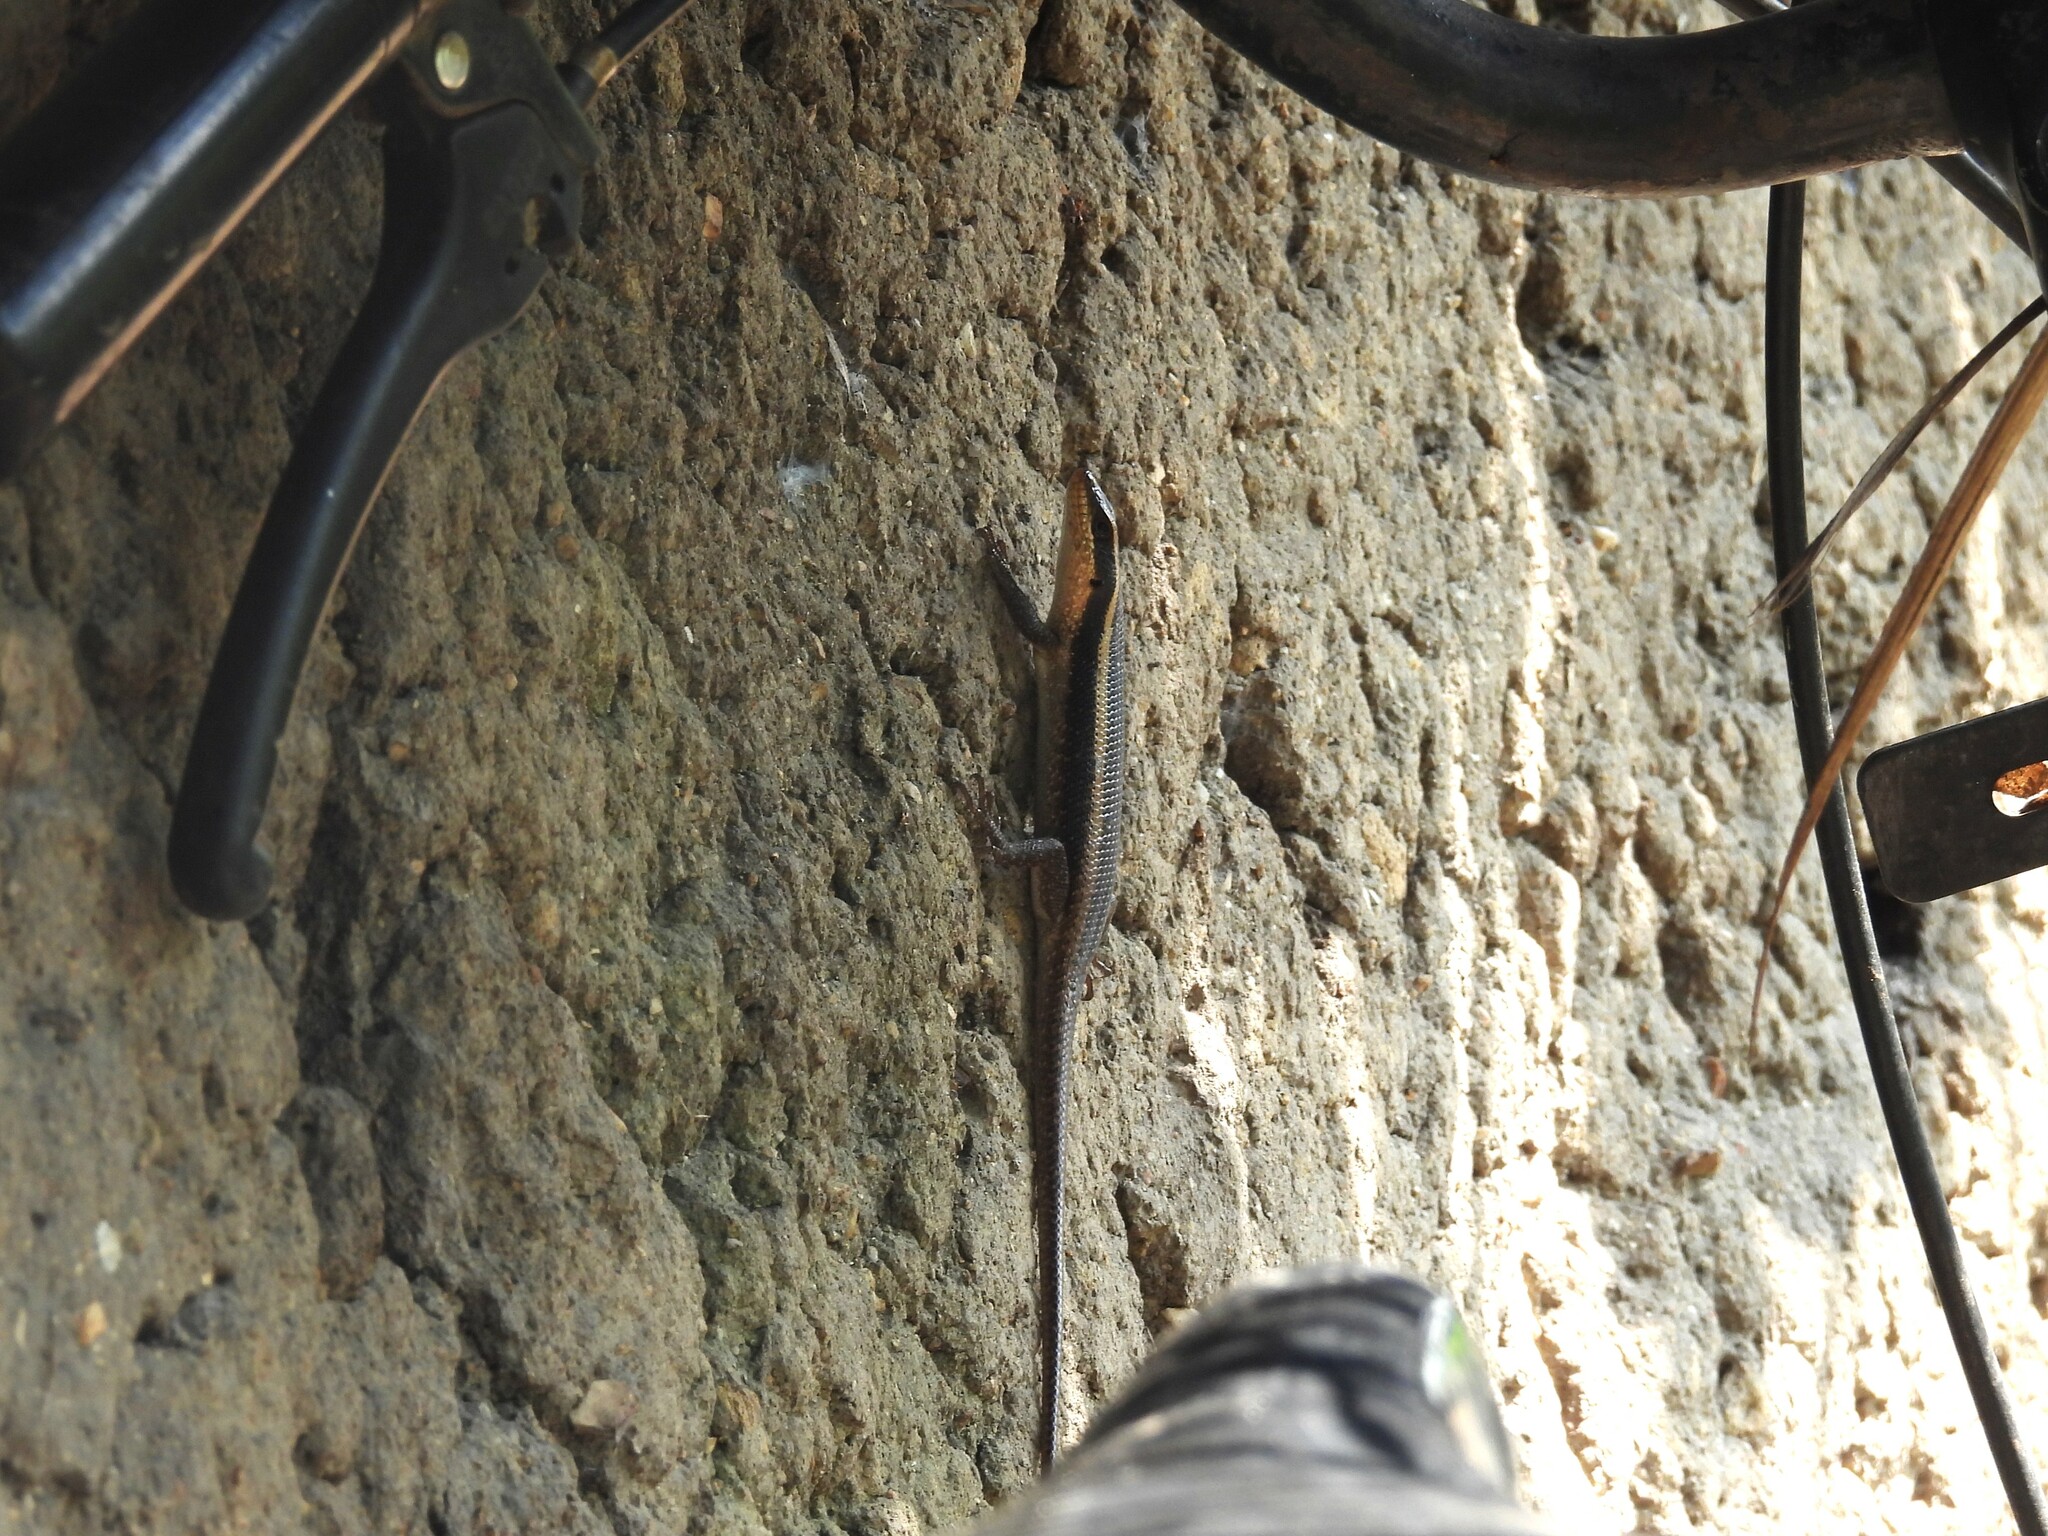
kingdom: Animalia
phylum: Chordata
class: Squamata
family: Scincidae
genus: Trachylepis
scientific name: Trachylepis striata
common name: African striped mabuya
